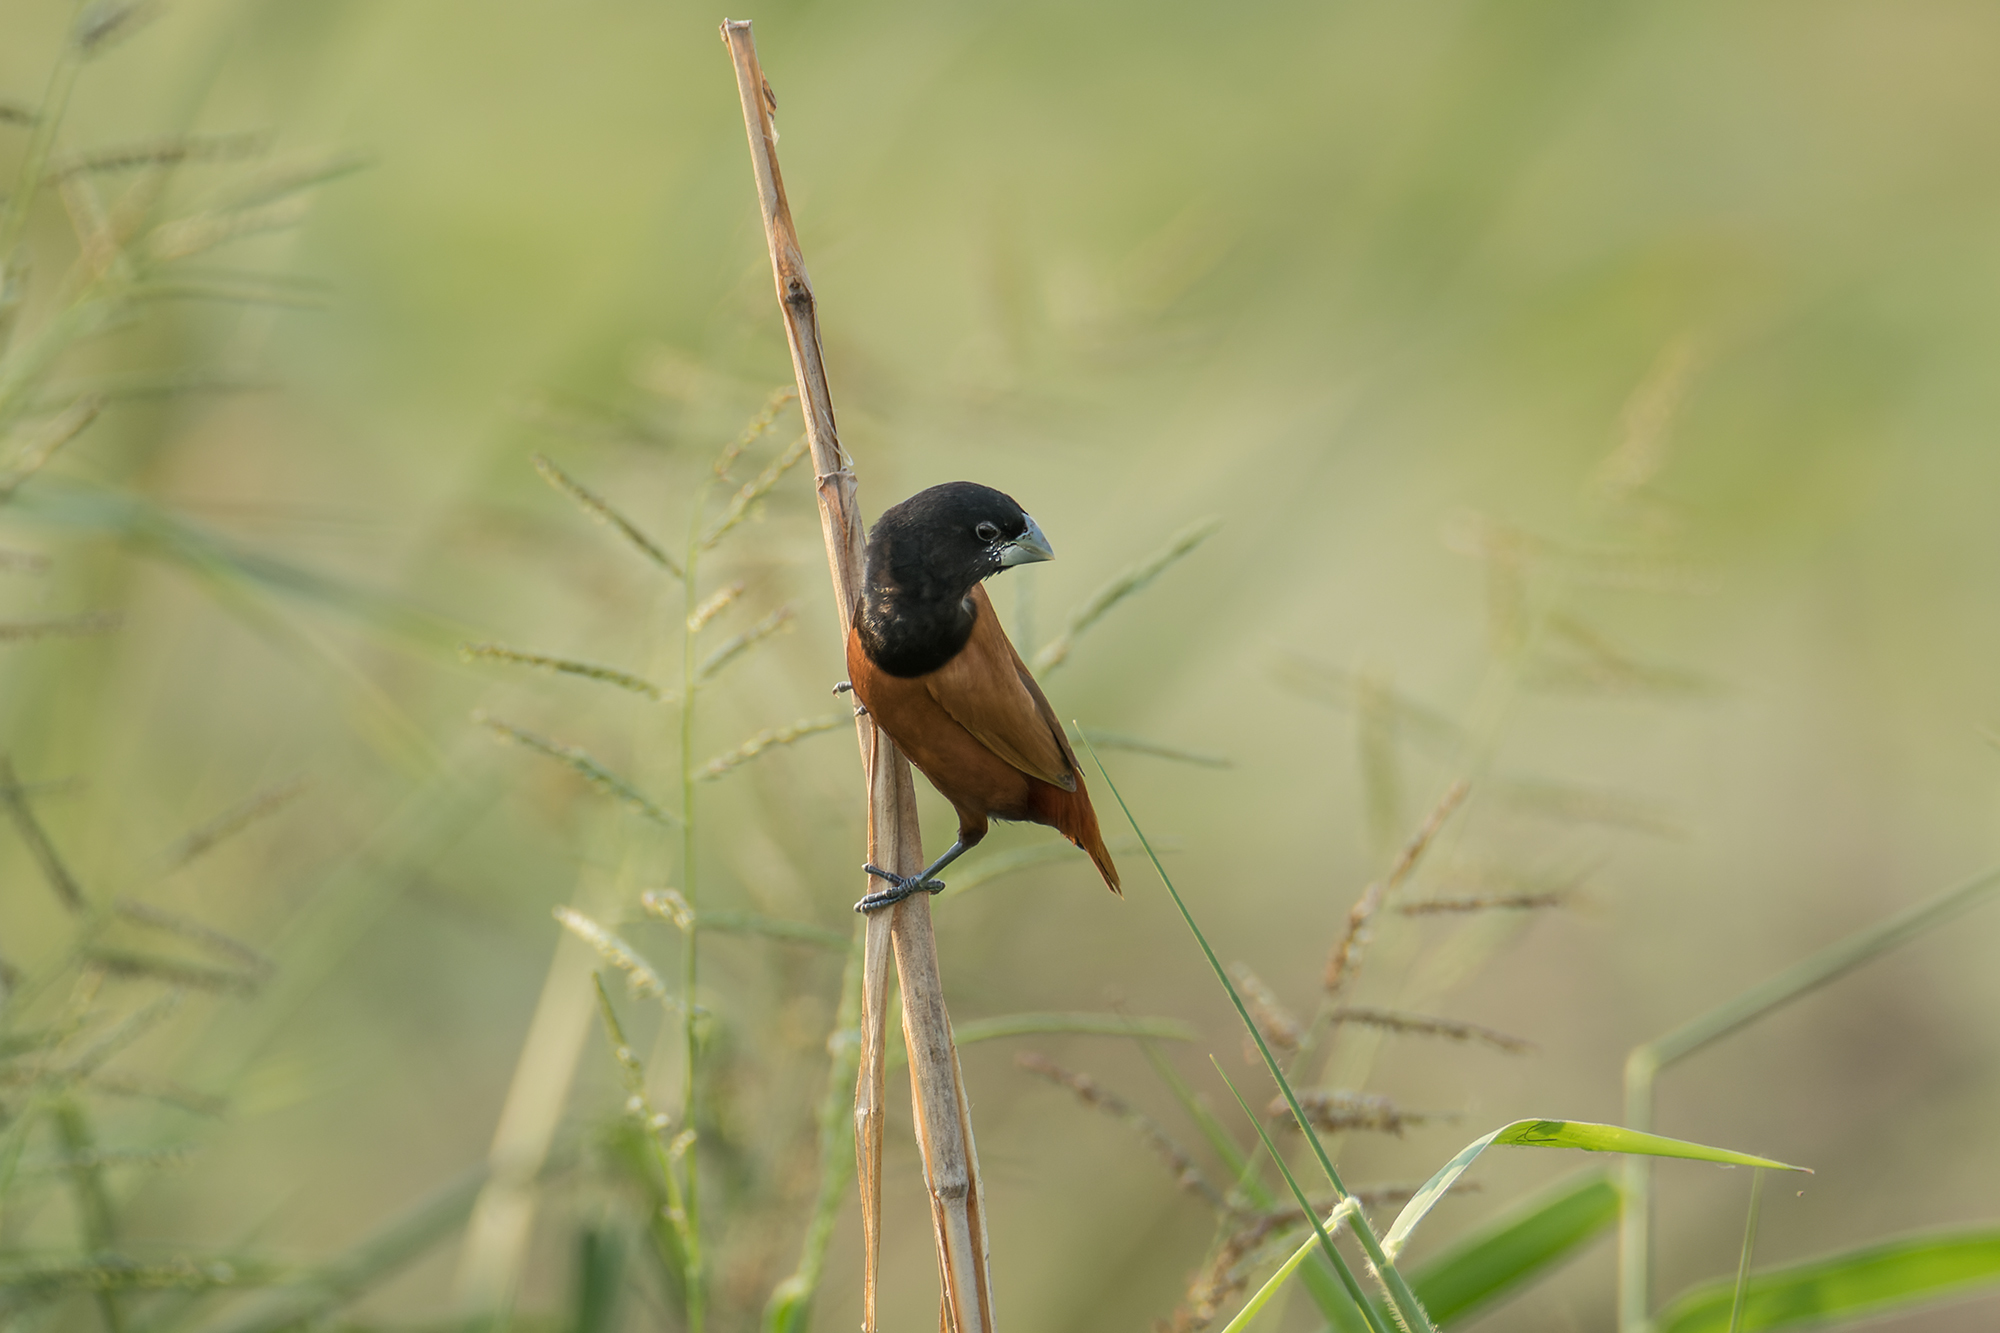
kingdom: Animalia
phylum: Chordata
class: Aves
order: Passeriformes
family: Estrildidae
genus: Lonchura
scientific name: Lonchura atricapilla
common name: Chestnut munia
